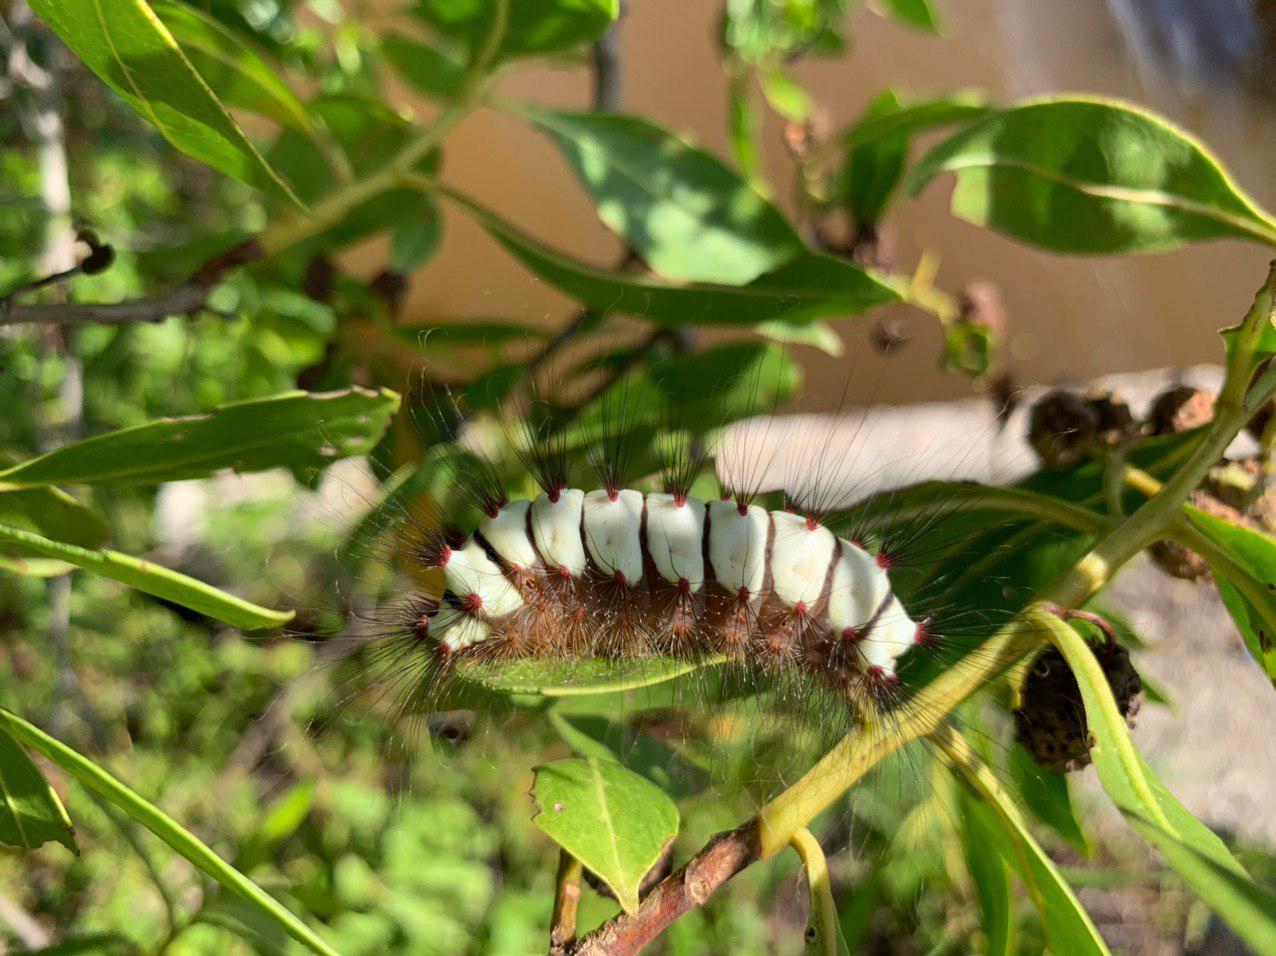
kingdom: Animalia
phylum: Arthropoda
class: Insecta
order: Lepidoptera
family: Megalopygidae
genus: Megalopyge
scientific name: Megalopyge lanata
